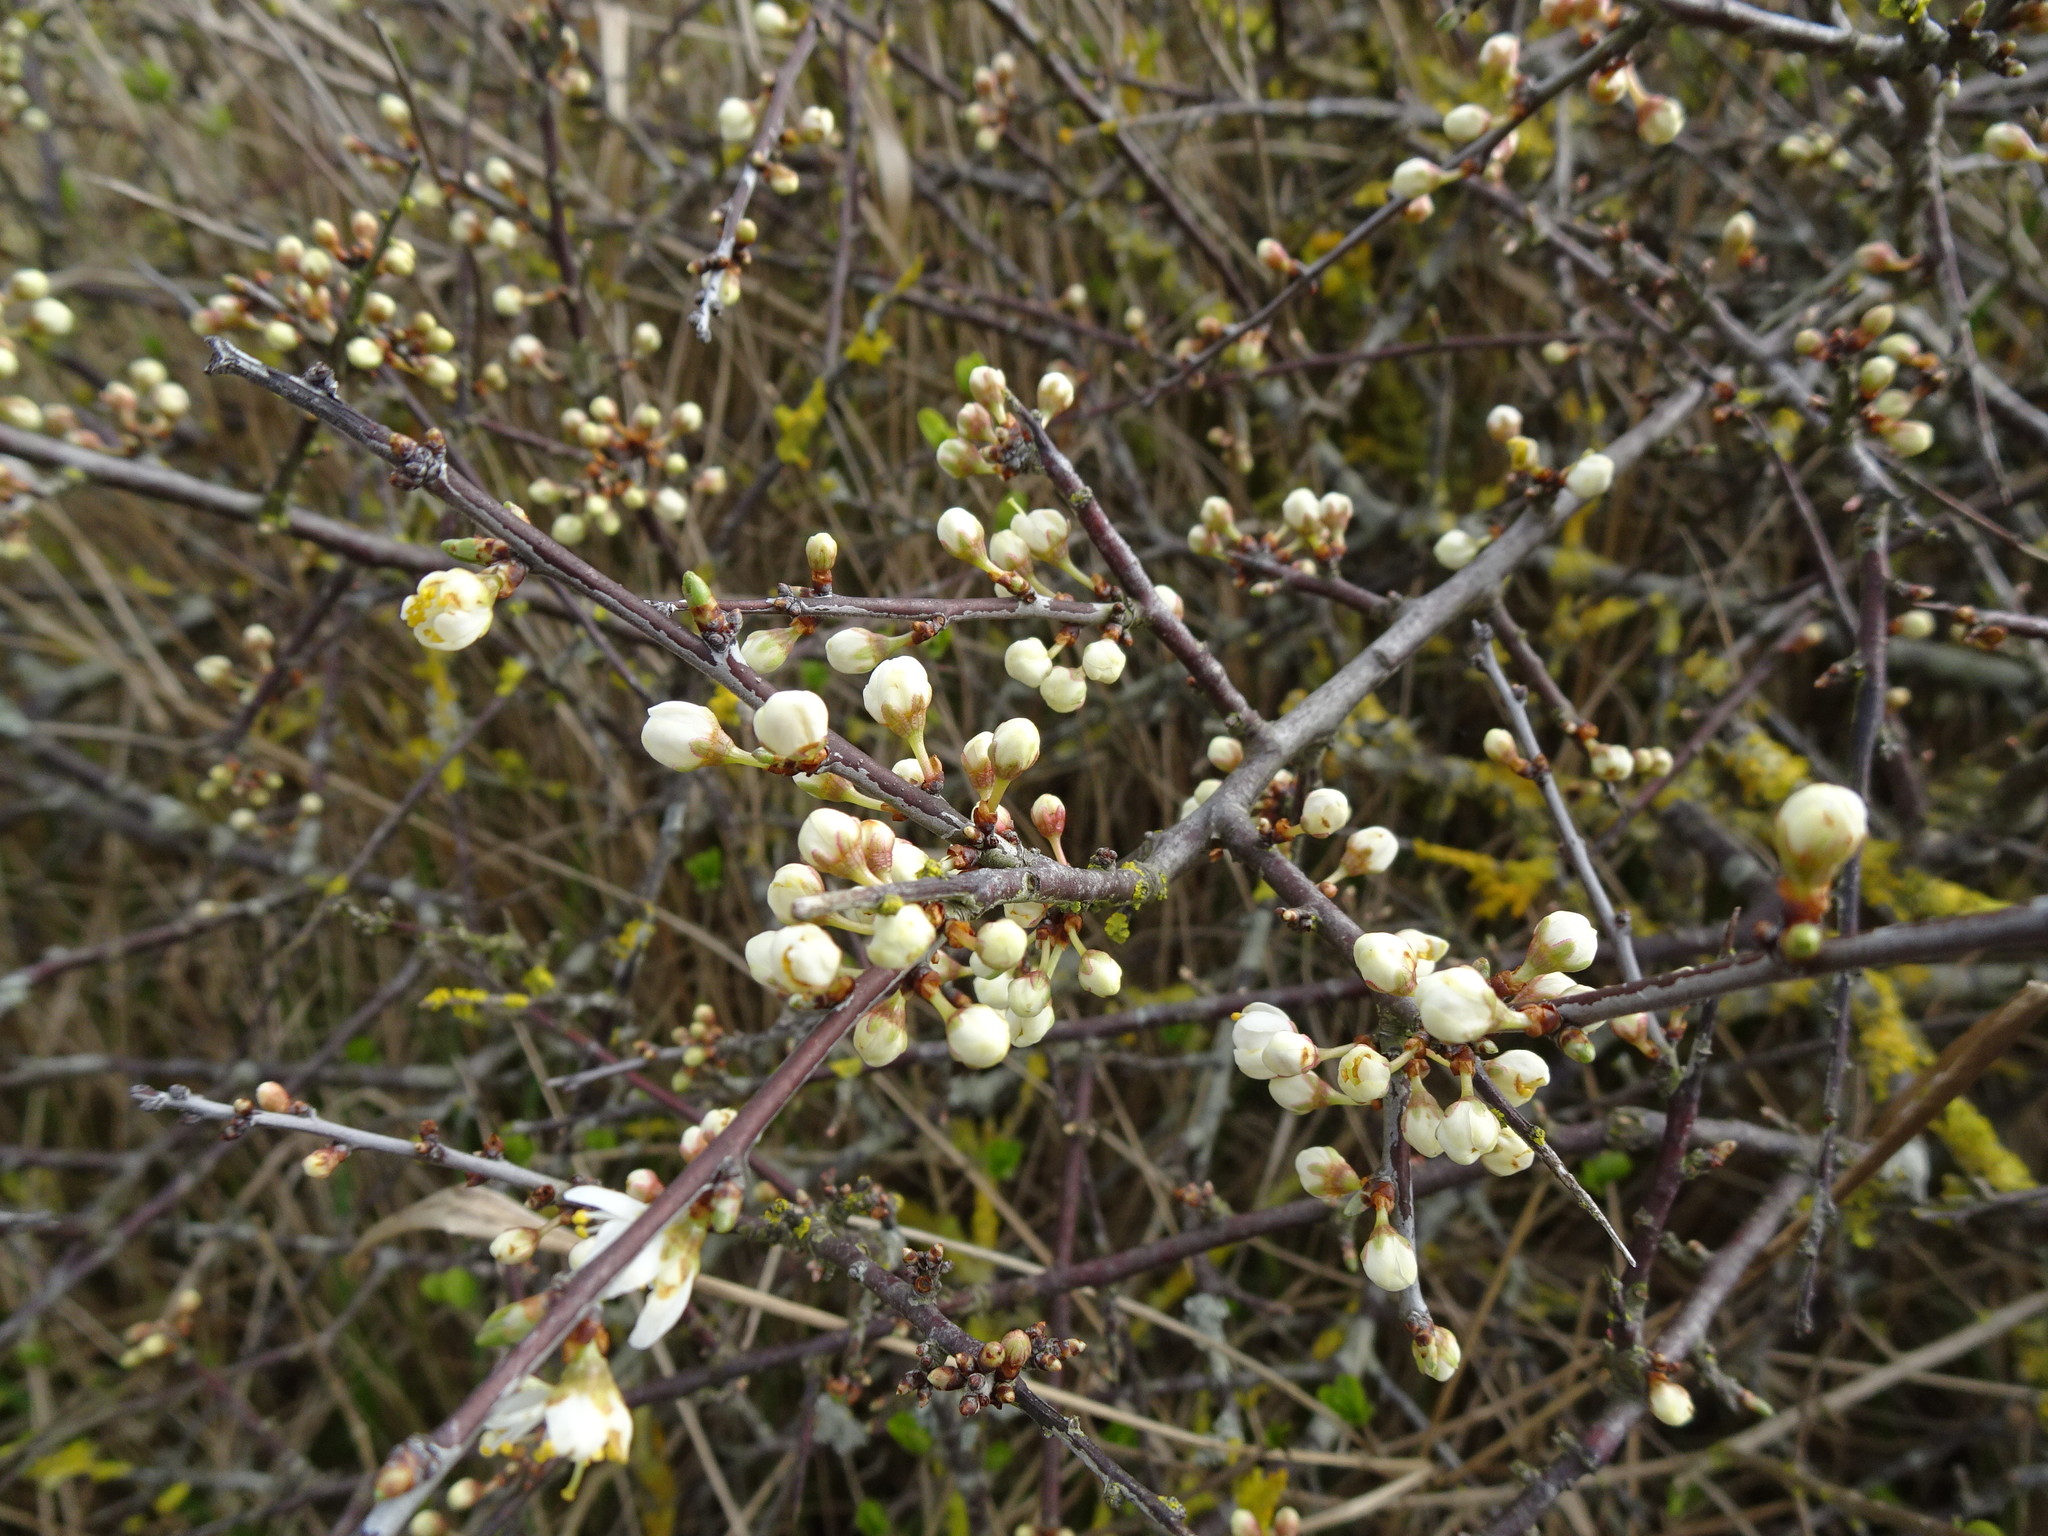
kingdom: Plantae
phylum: Tracheophyta
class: Magnoliopsida
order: Rosales
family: Rosaceae
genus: Prunus
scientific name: Prunus spinosa
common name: Blackthorn
